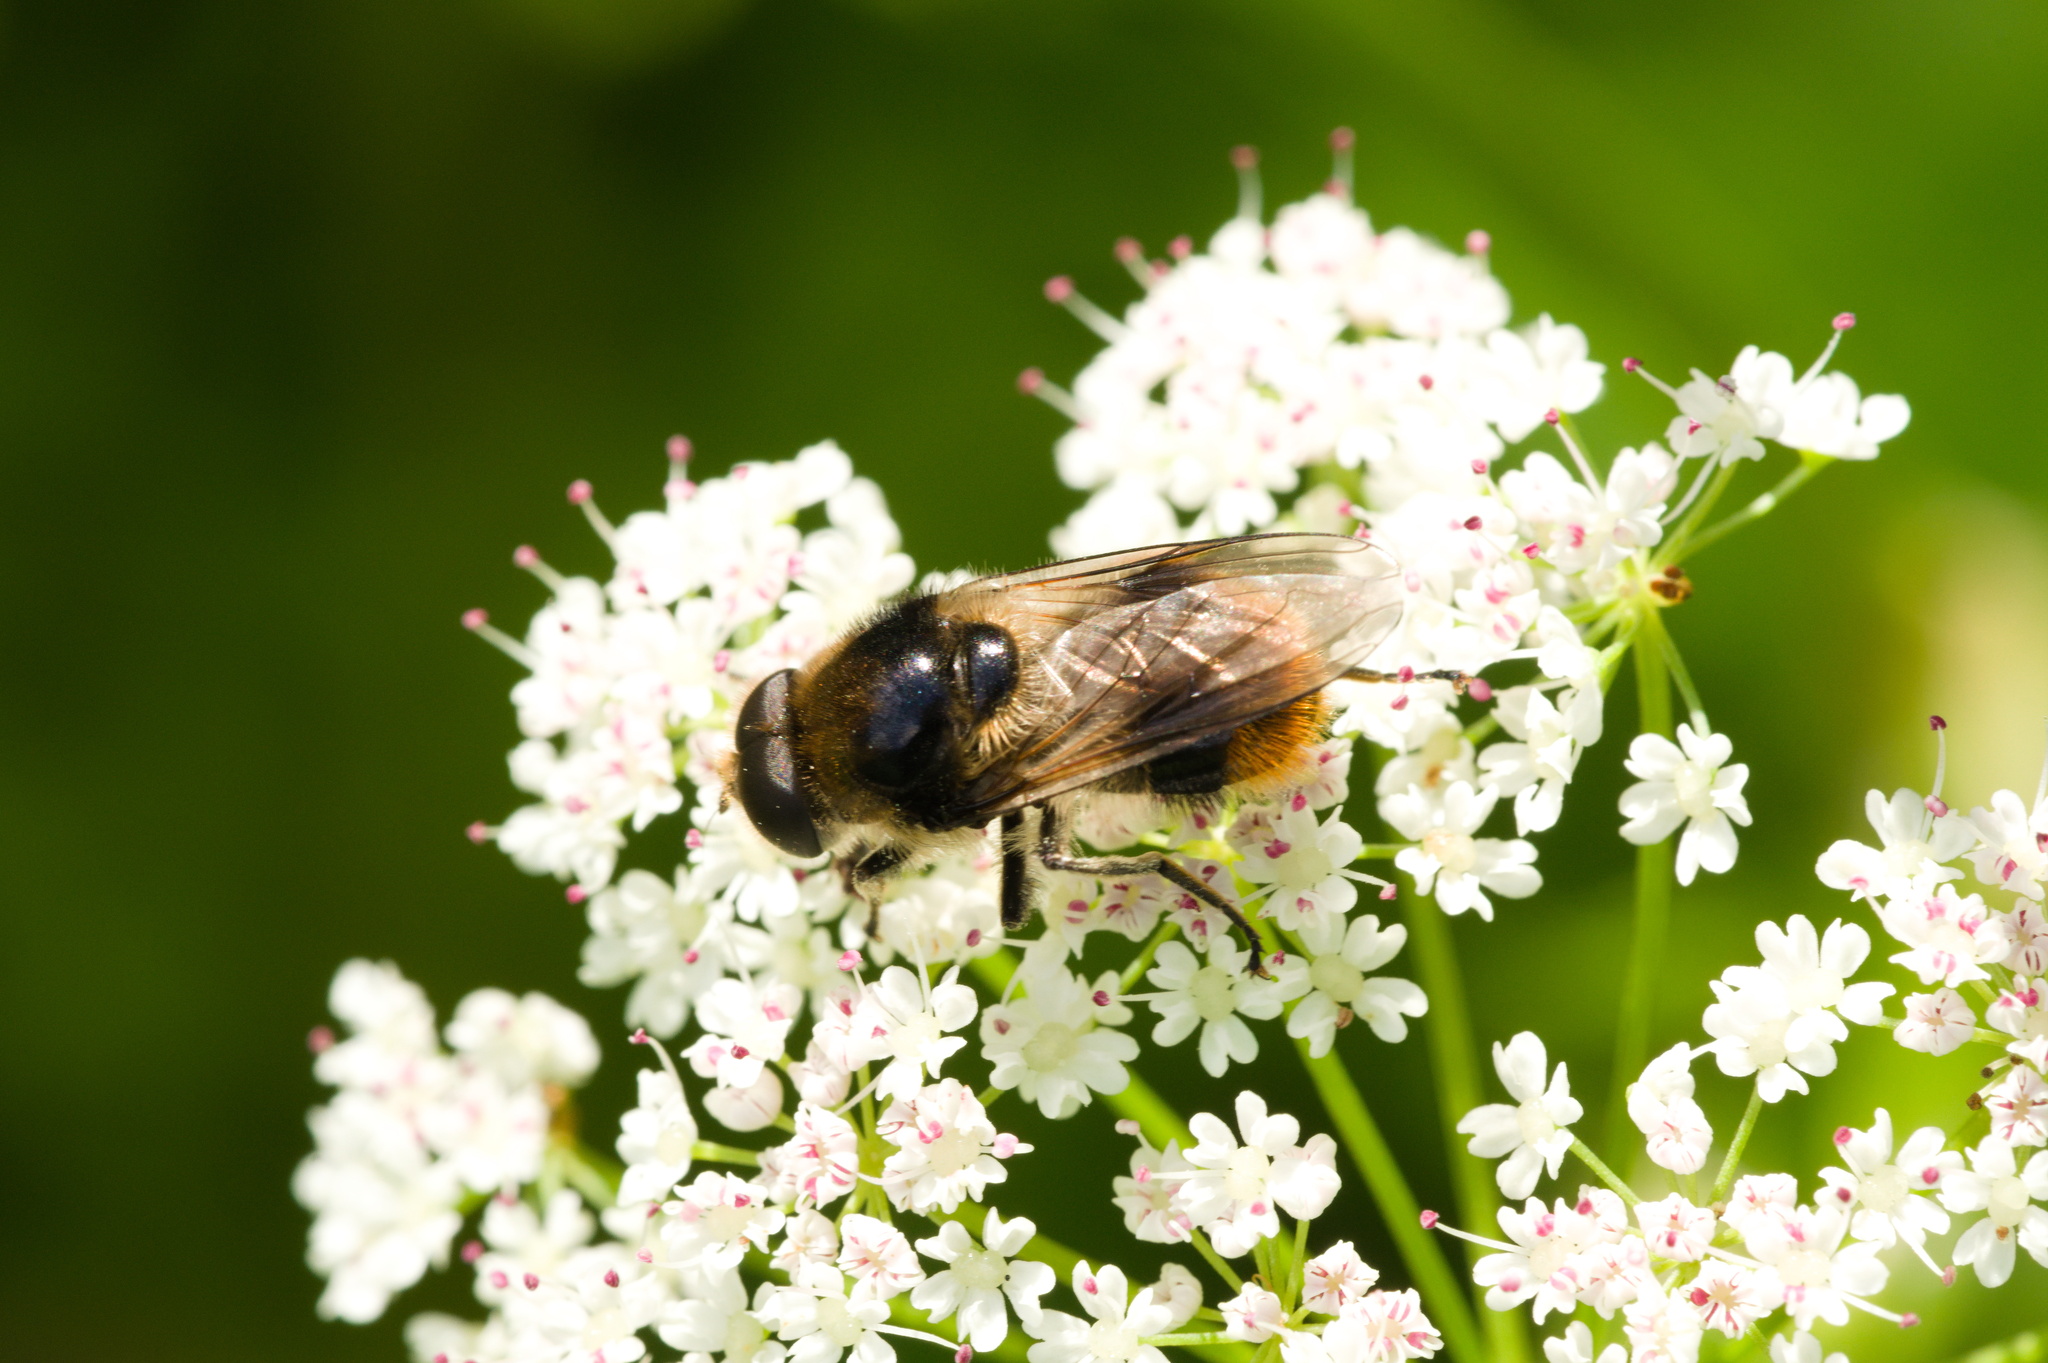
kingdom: Animalia
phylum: Arthropoda
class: Insecta
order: Diptera
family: Syrphidae
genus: Cheilosia
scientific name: Cheilosia illustrata
